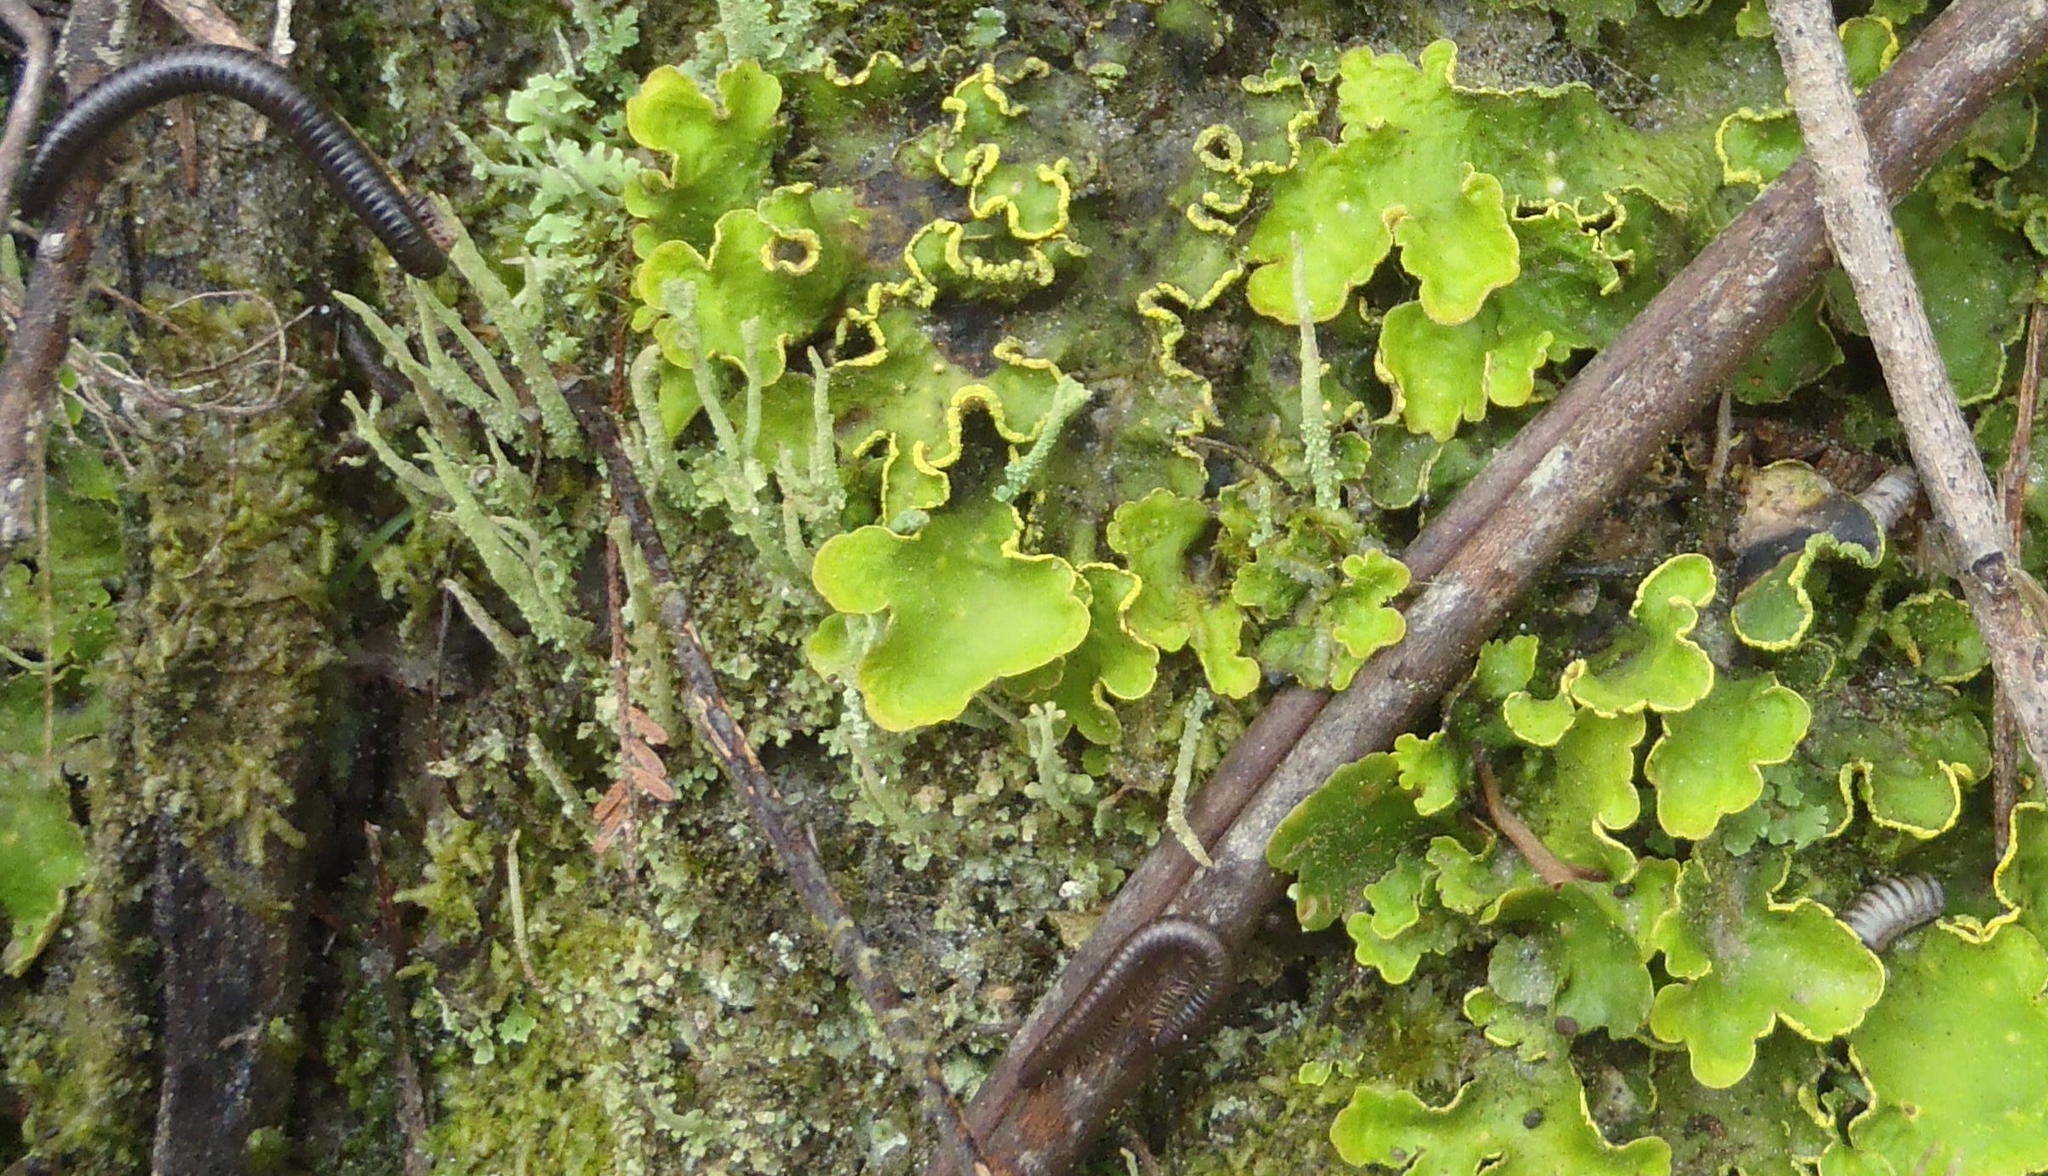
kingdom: Fungi
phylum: Ascomycota
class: Lecanoromycetes
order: Peltigerales
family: Lobariaceae
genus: Pseudocyphellaria
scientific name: Pseudocyphellaria aurata
